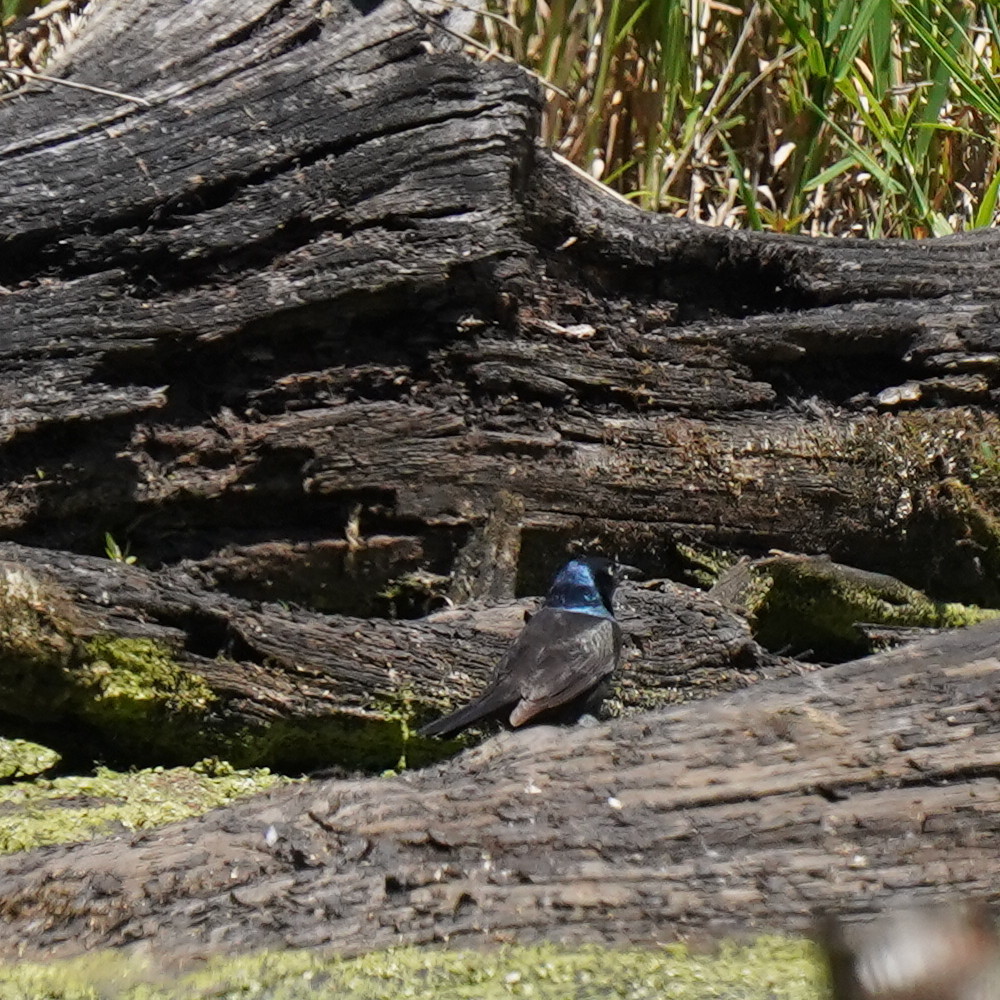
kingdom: Animalia
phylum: Chordata
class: Aves
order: Passeriformes
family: Icteridae
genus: Quiscalus
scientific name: Quiscalus quiscula
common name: Common grackle
